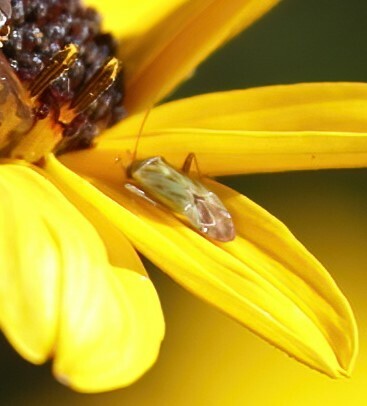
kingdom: Animalia
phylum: Arthropoda
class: Insecta
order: Hemiptera
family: Miridae
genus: Taylorilygus
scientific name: Taylorilygus apicalis
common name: Plant bug
